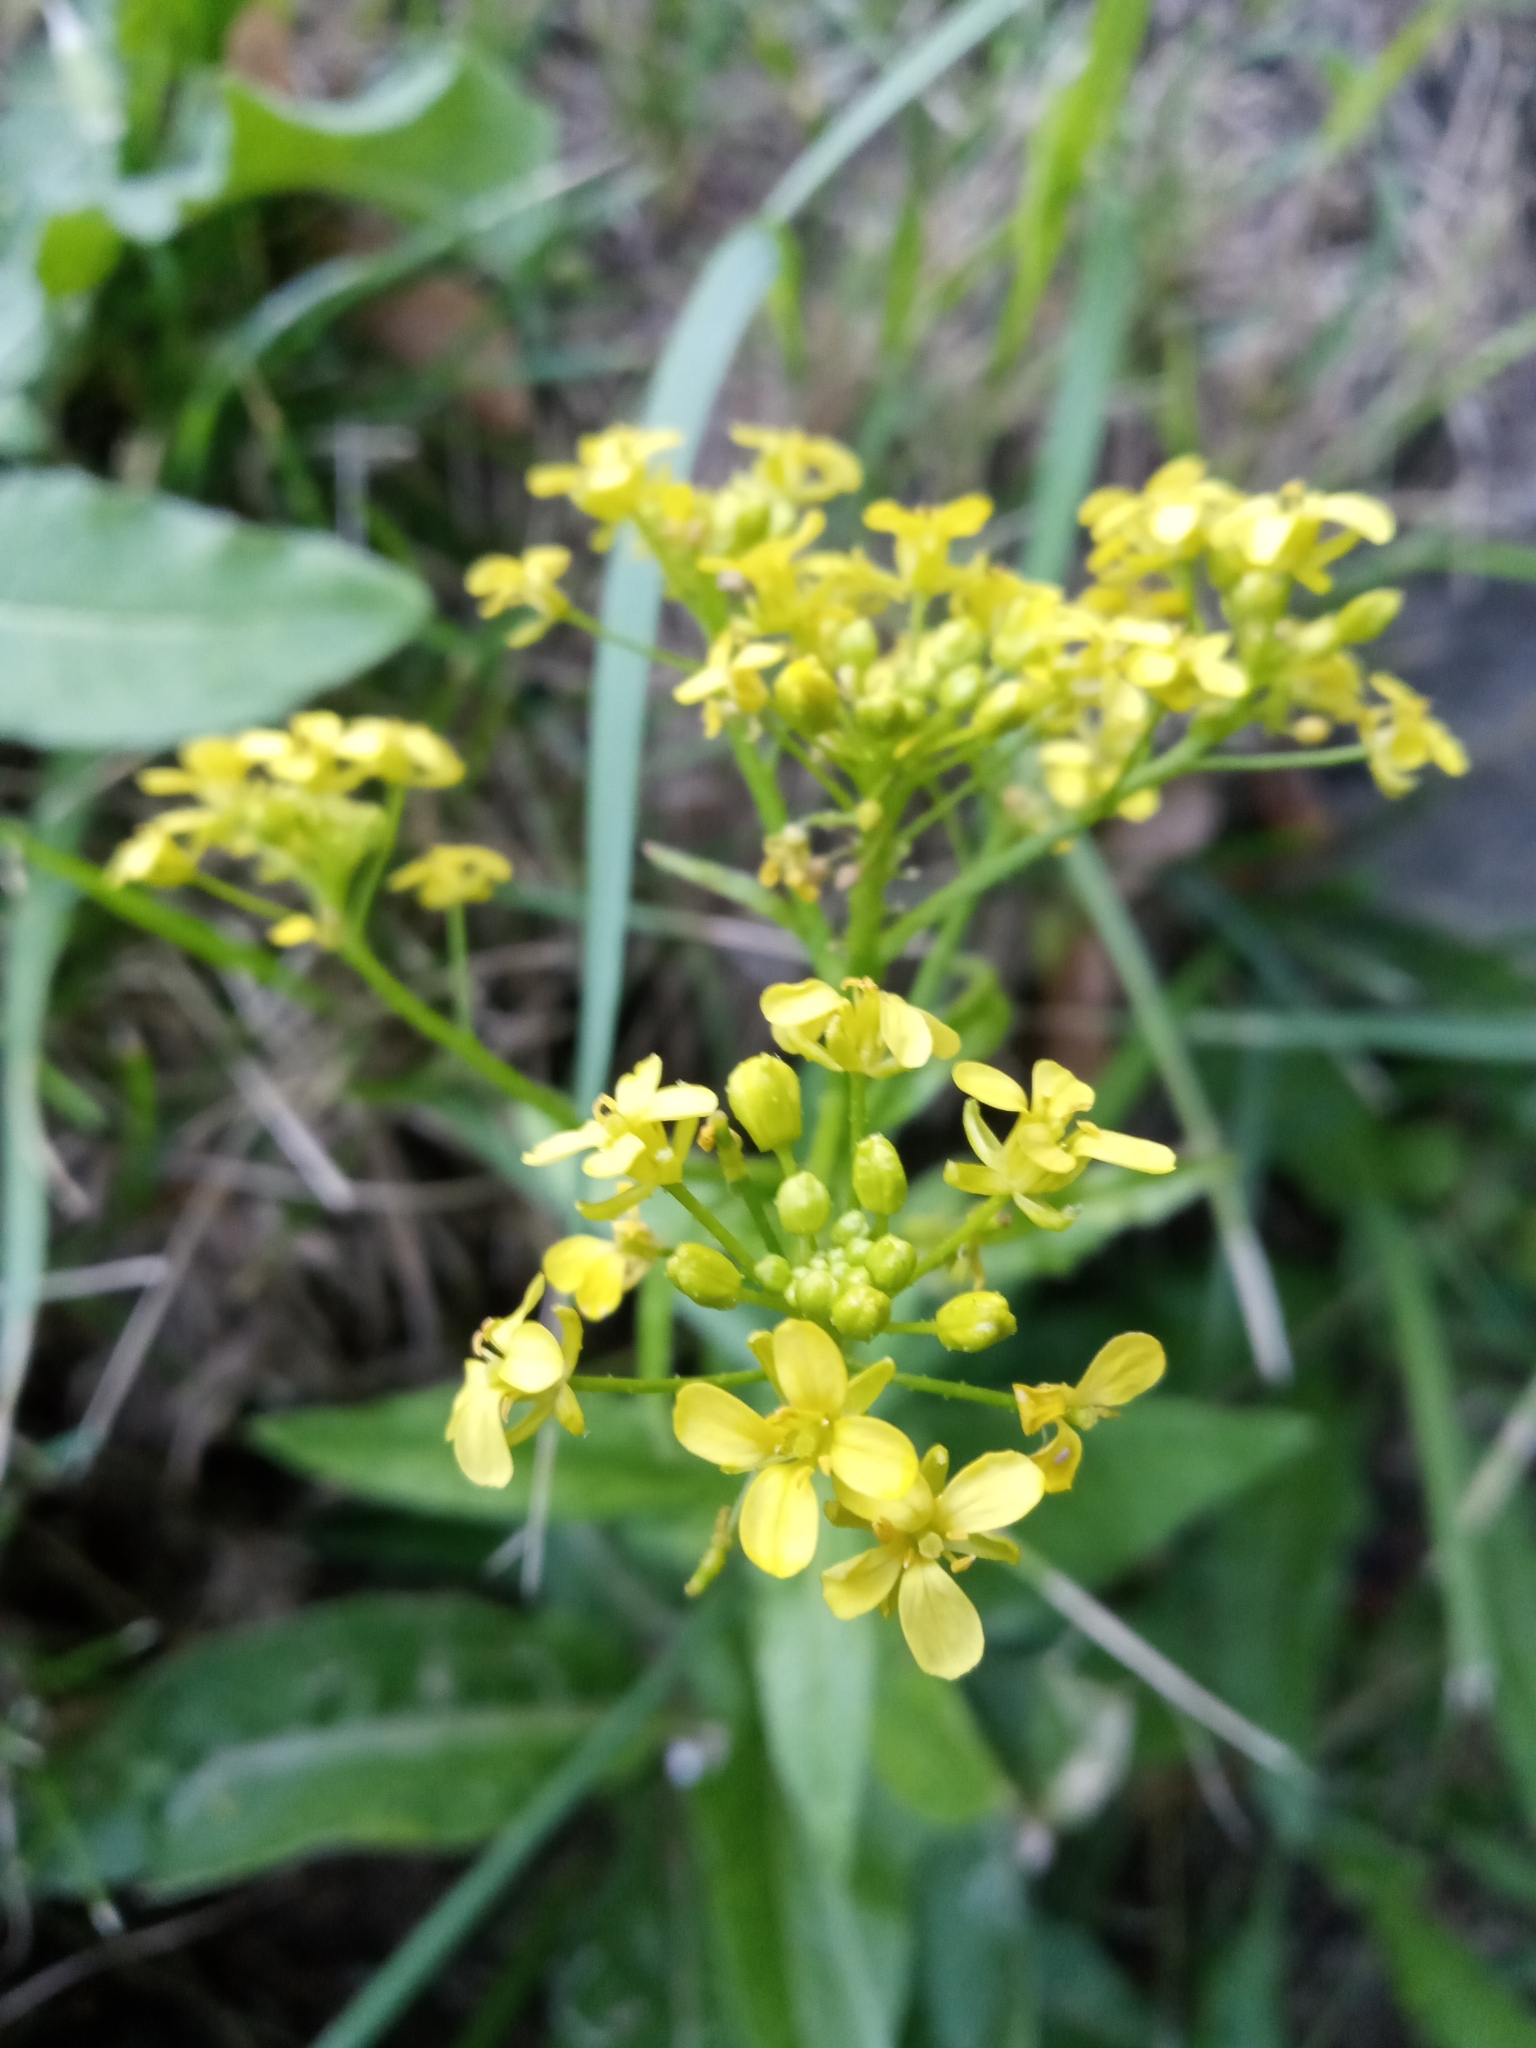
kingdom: Plantae
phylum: Tracheophyta
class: Magnoliopsida
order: Brassicales
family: Brassicaceae
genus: Bunias
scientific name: Bunias orientalis
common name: Warty-cabbage
